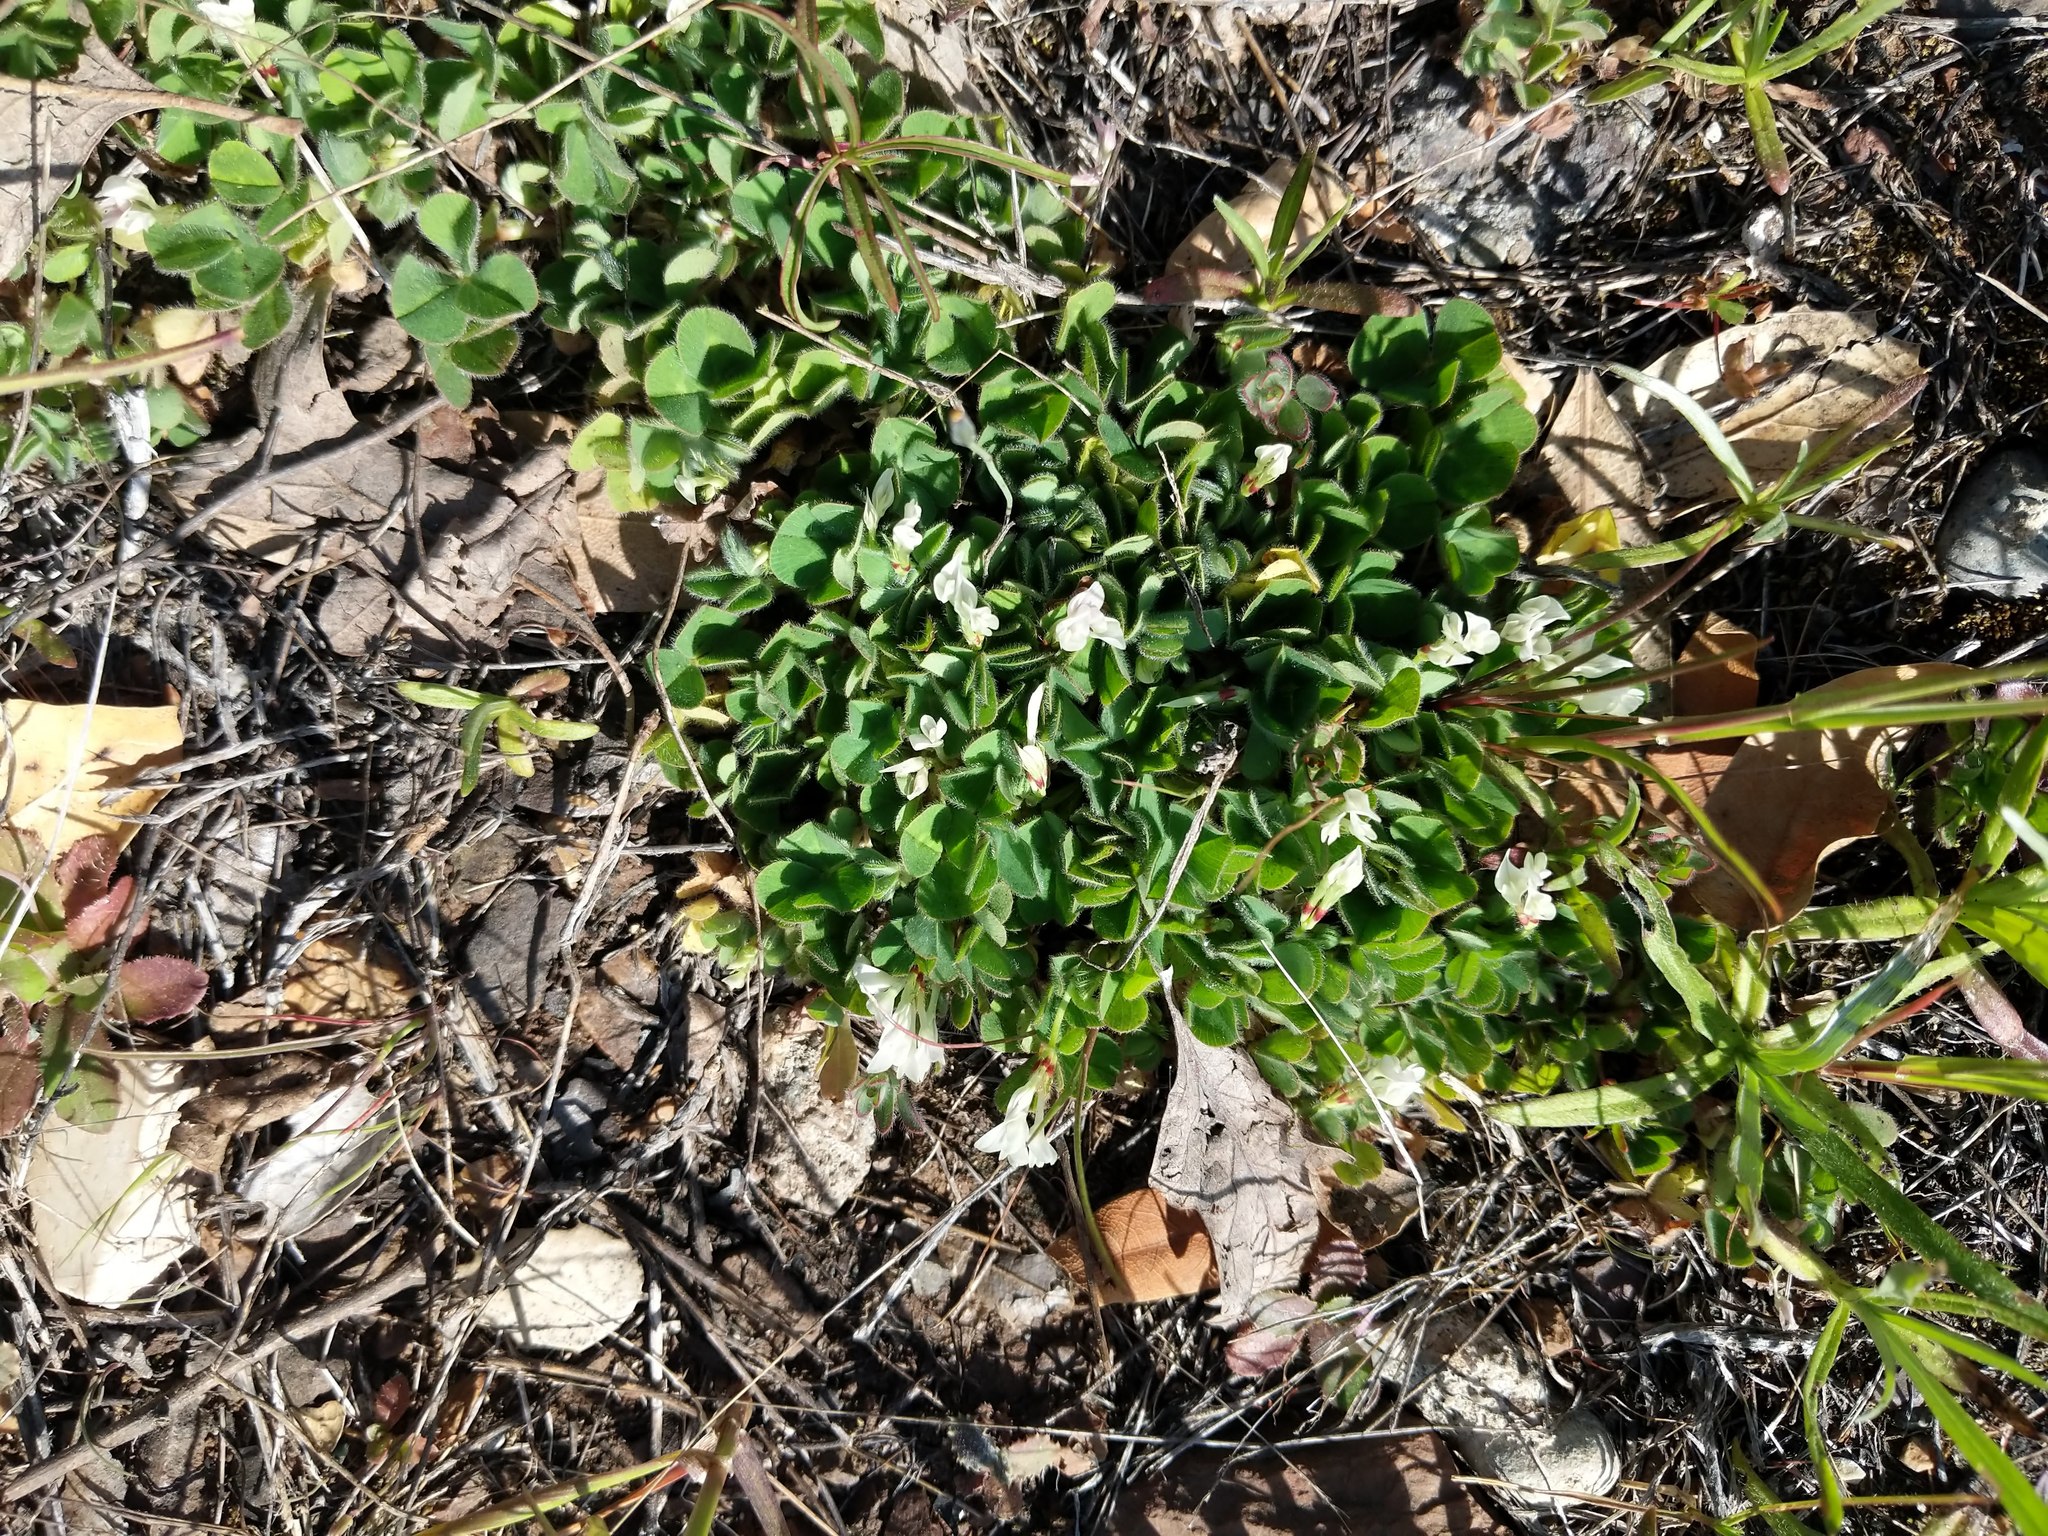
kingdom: Plantae
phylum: Tracheophyta
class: Magnoliopsida
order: Fabales
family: Fabaceae
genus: Trifolium
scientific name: Trifolium subterraneum
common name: Subterranean clover
